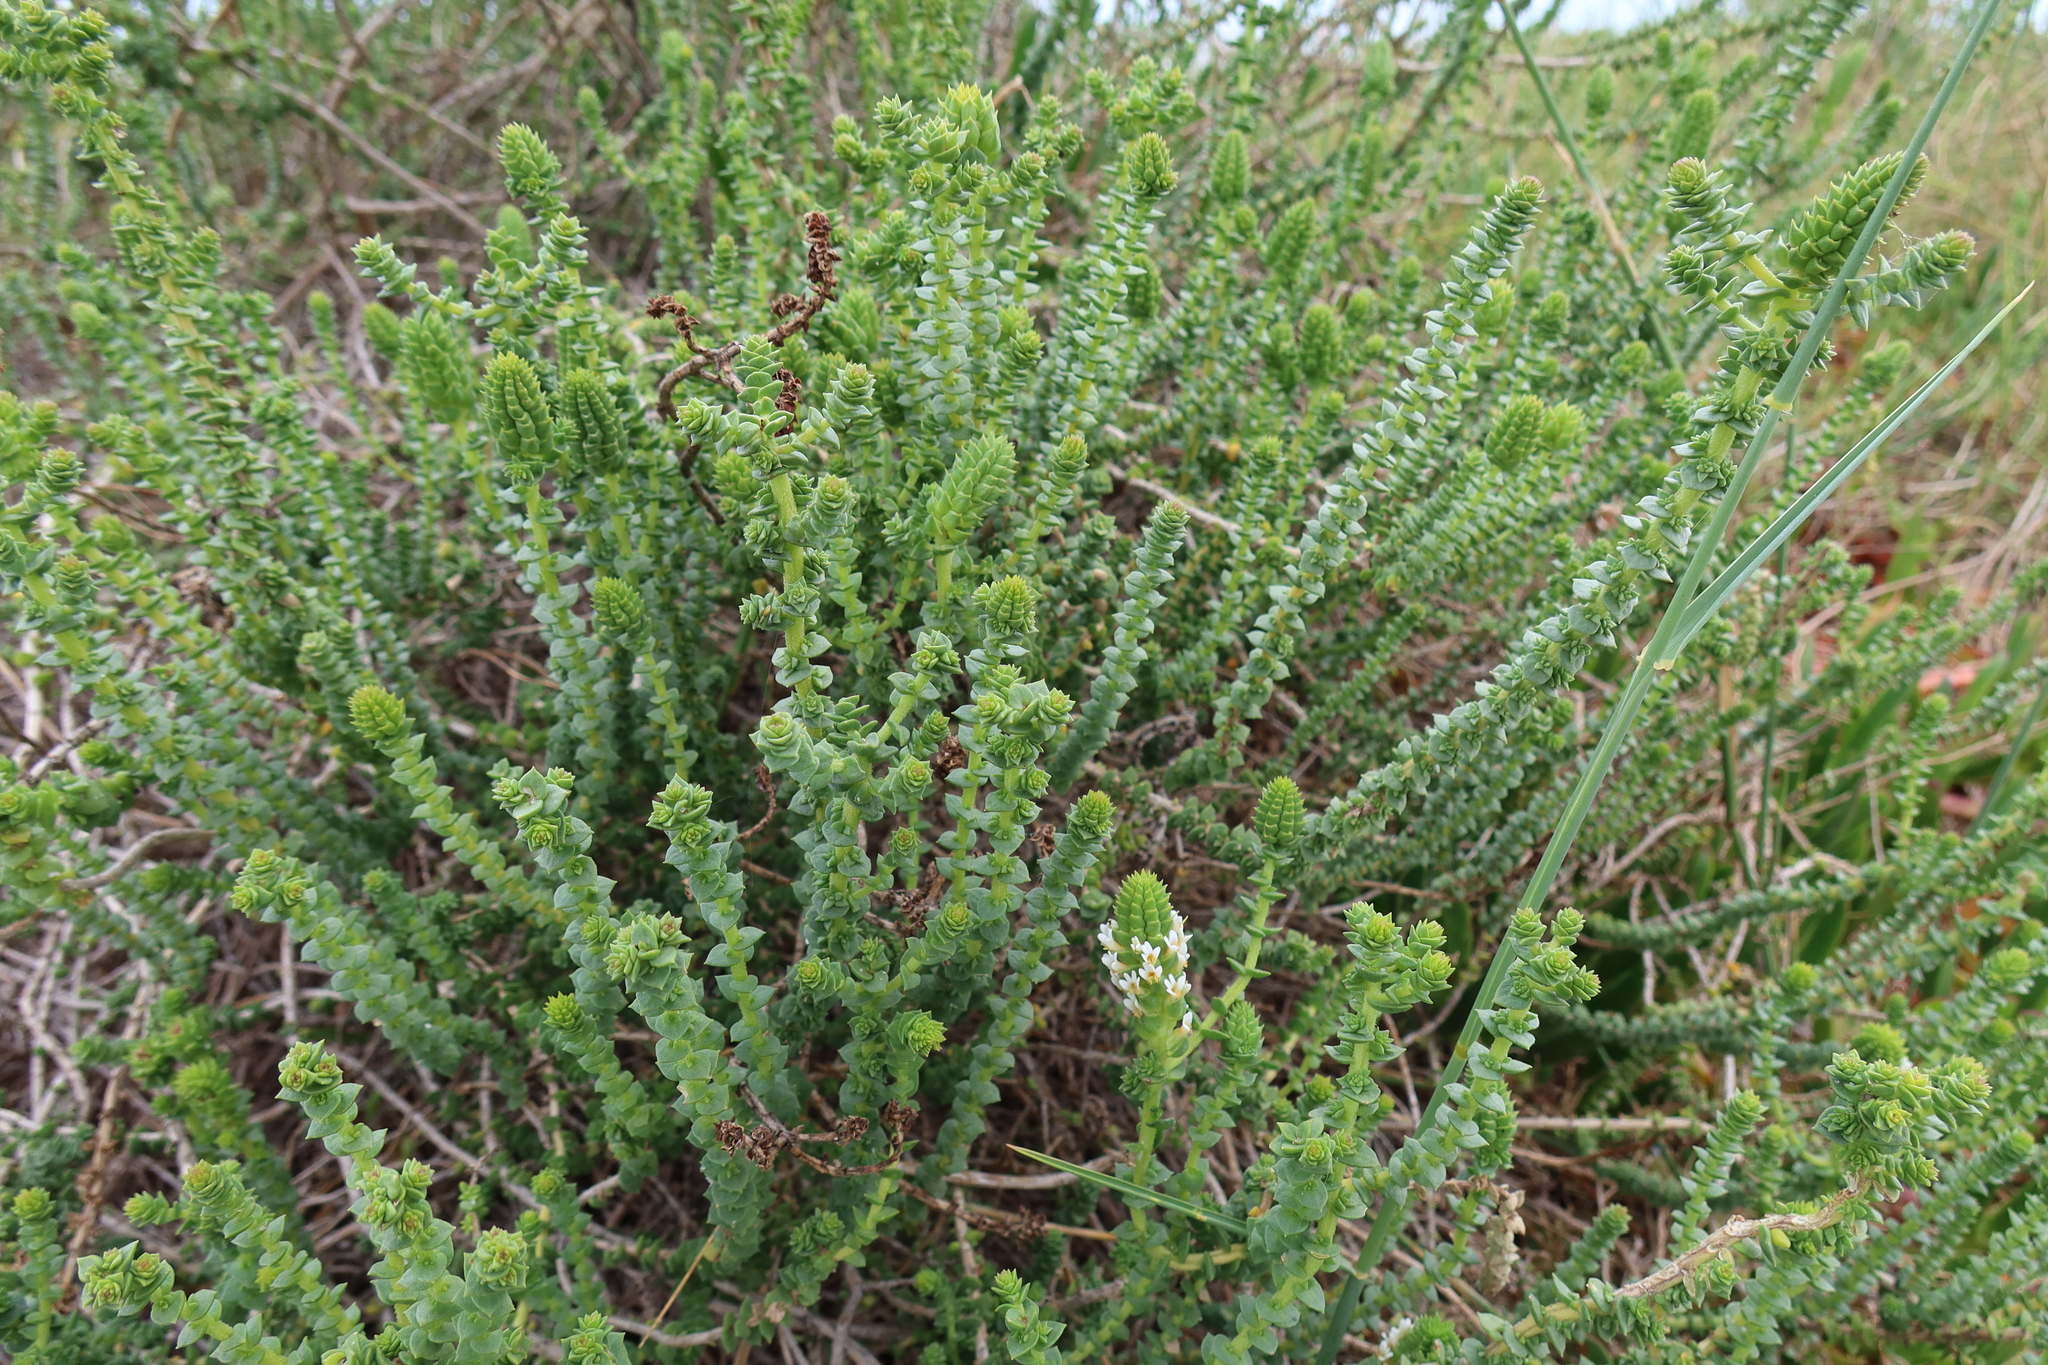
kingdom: Plantae
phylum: Tracheophyta
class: Magnoliopsida
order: Lamiales
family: Scrophulariaceae
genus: Hebenstretia
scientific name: Hebenstretia cordata
